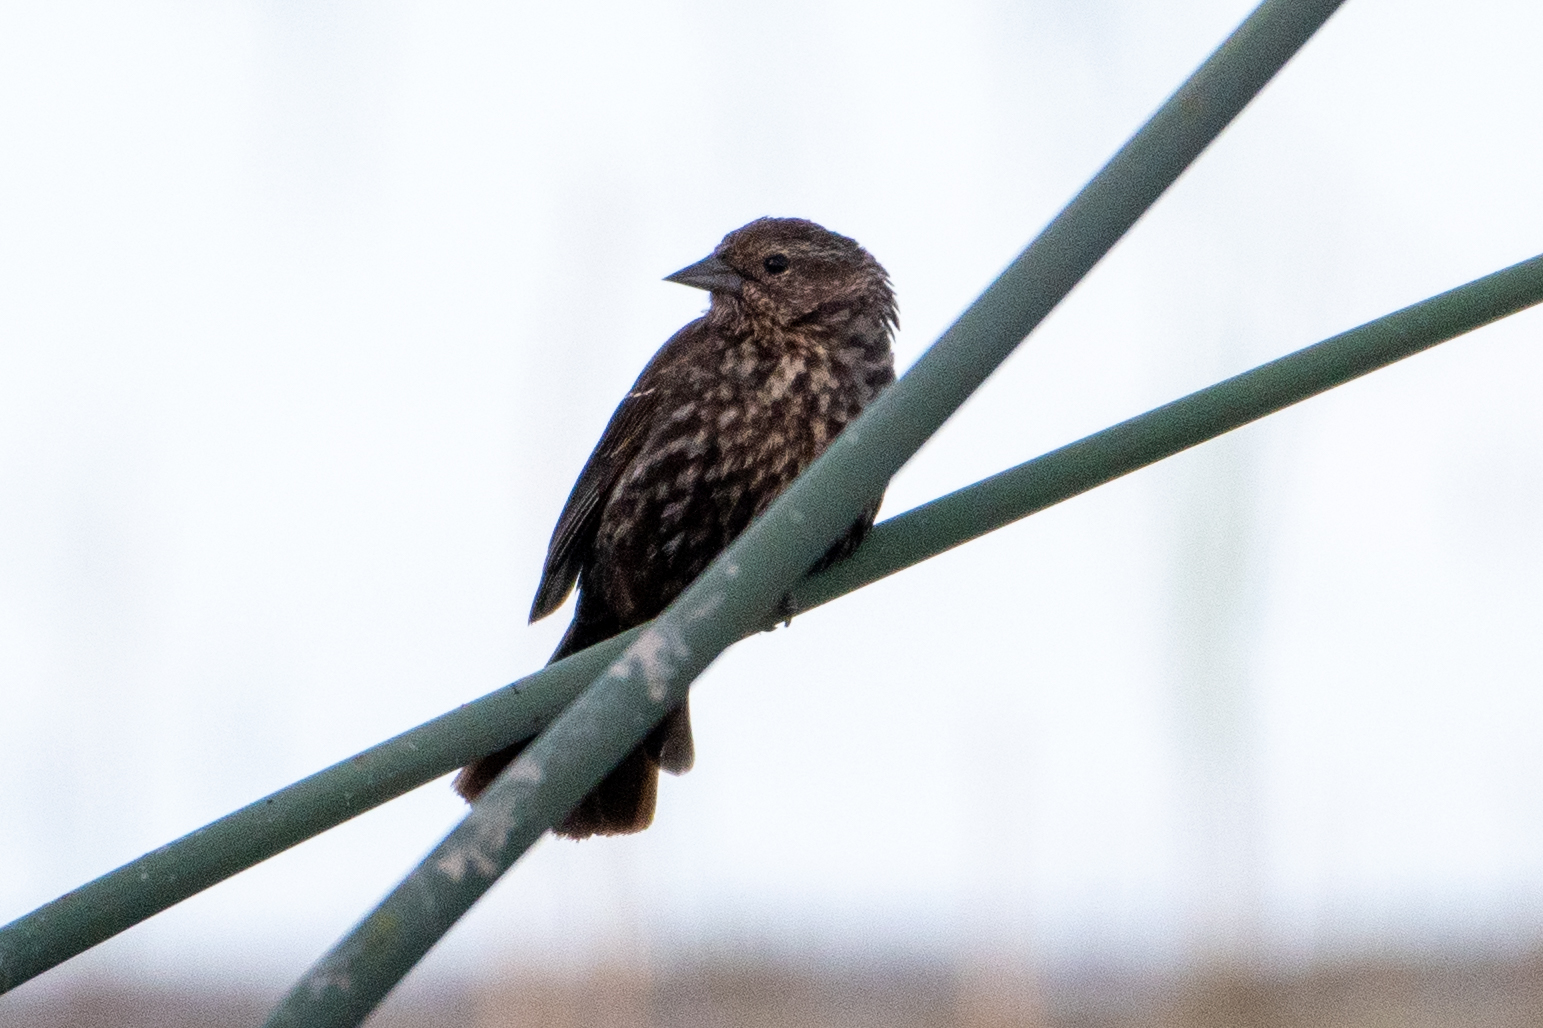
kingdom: Animalia
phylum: Chordata
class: Aves
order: Passeriformes
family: Icteridae
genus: Agelaius
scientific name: Agelaius phoeniceus
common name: Red-winged blackbird
